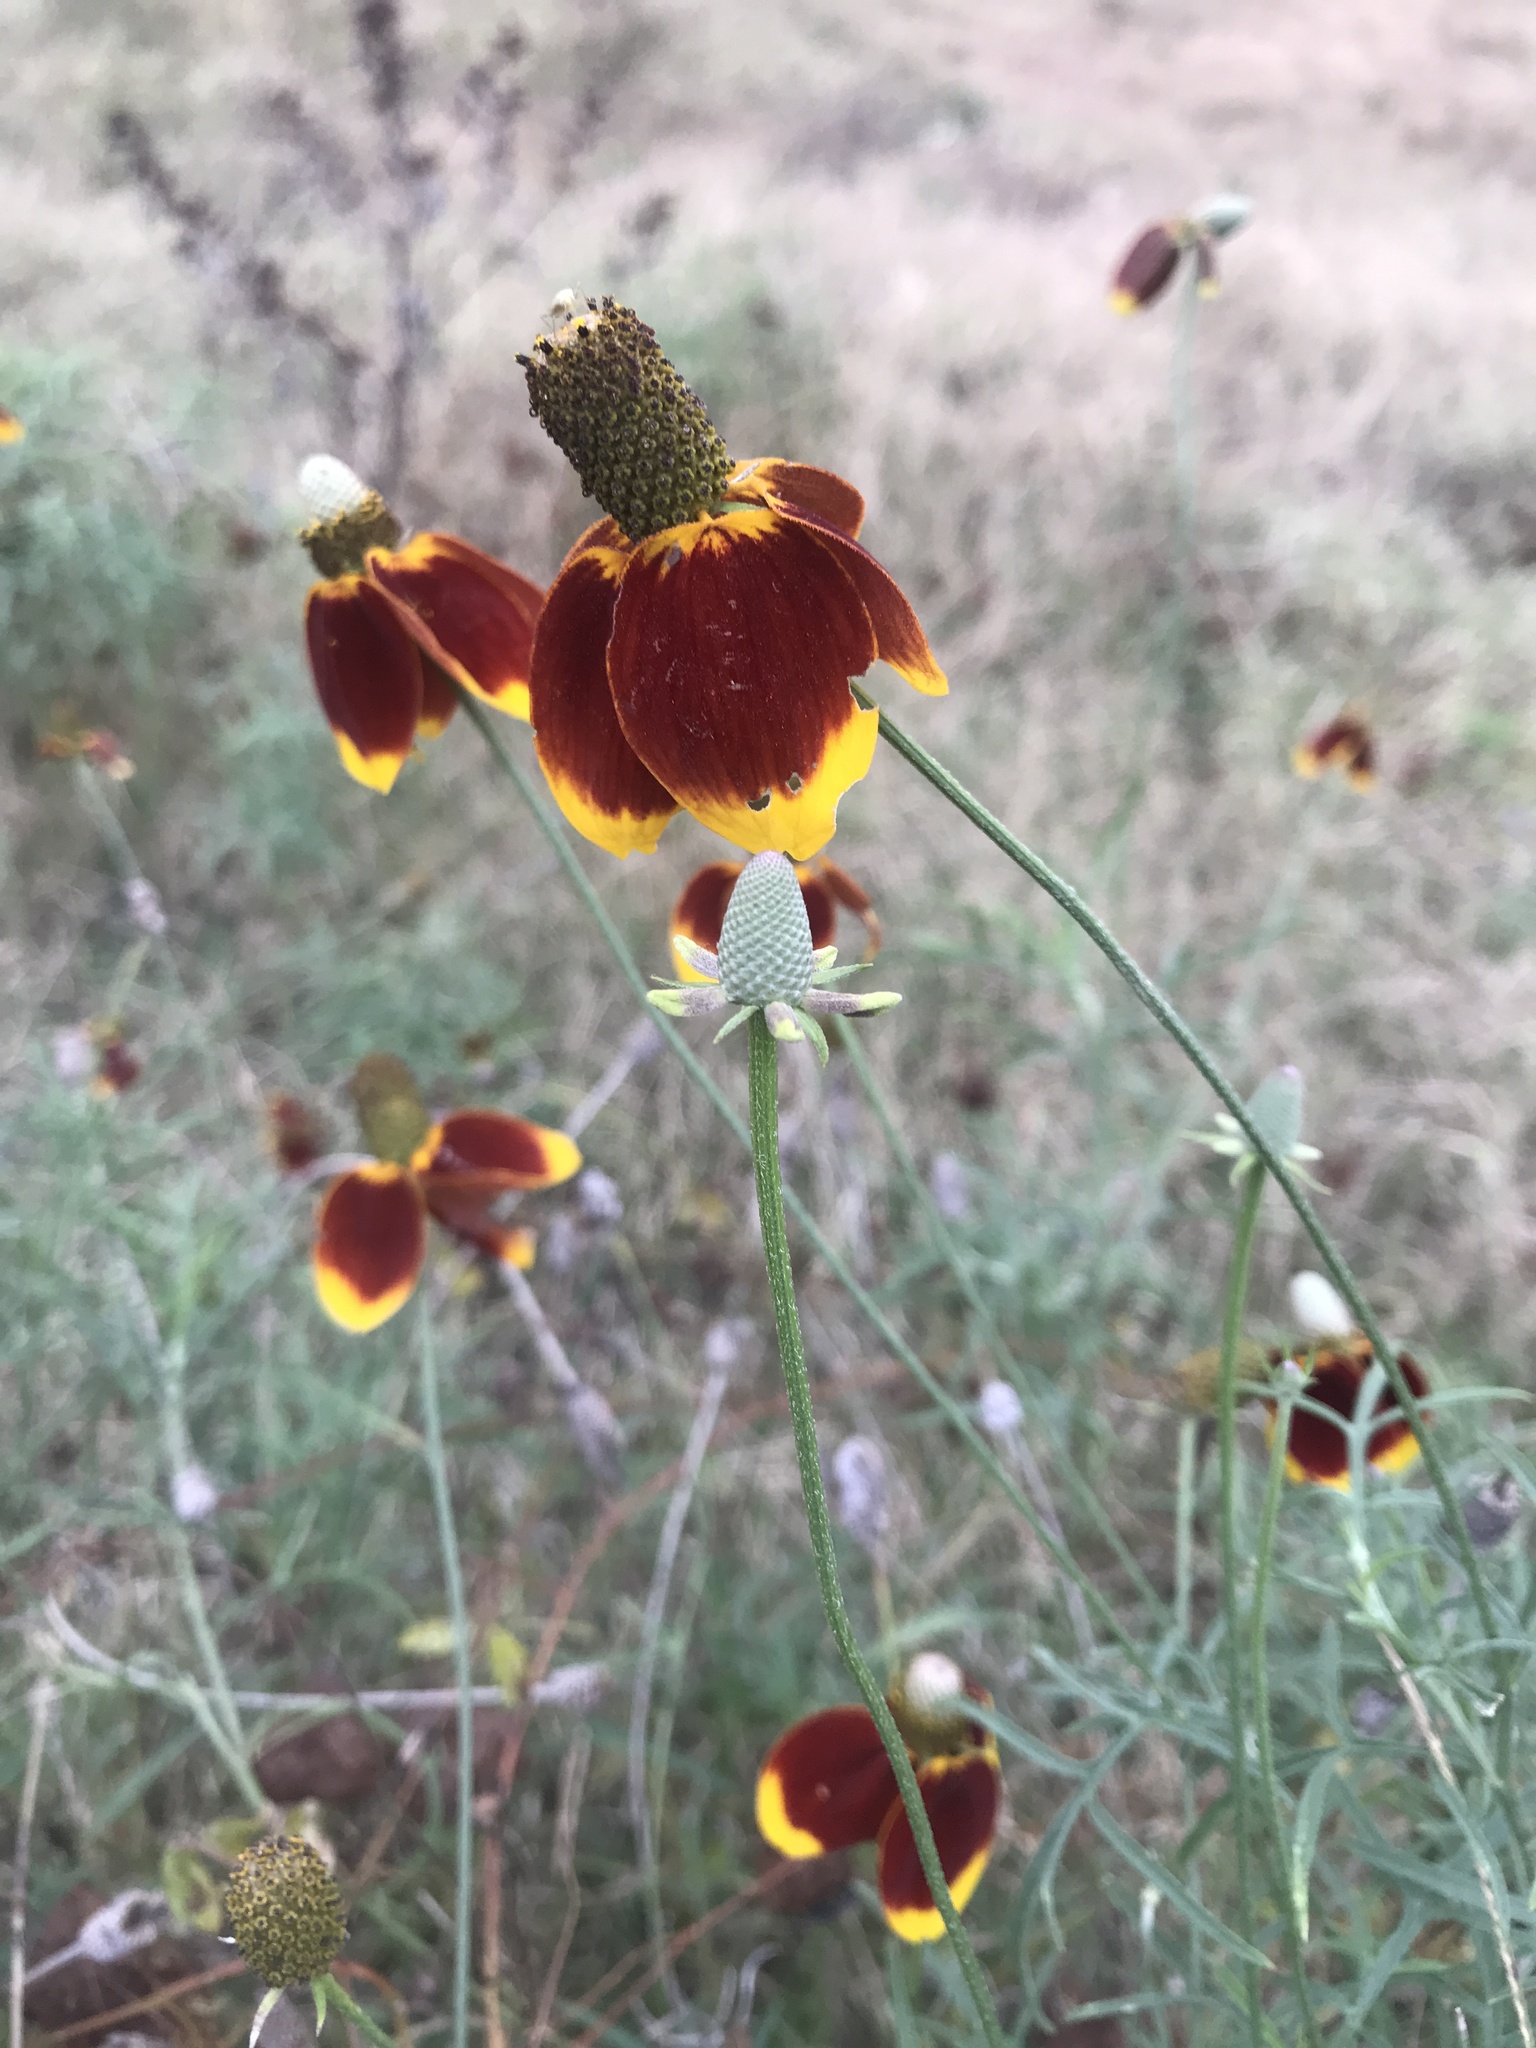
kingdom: Plantae
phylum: Tracheophyta
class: Magnoliopsida
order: Asterales
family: Asteraceae
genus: Ratibida
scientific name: Ratibida columnifera
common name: Prairie coneflower
